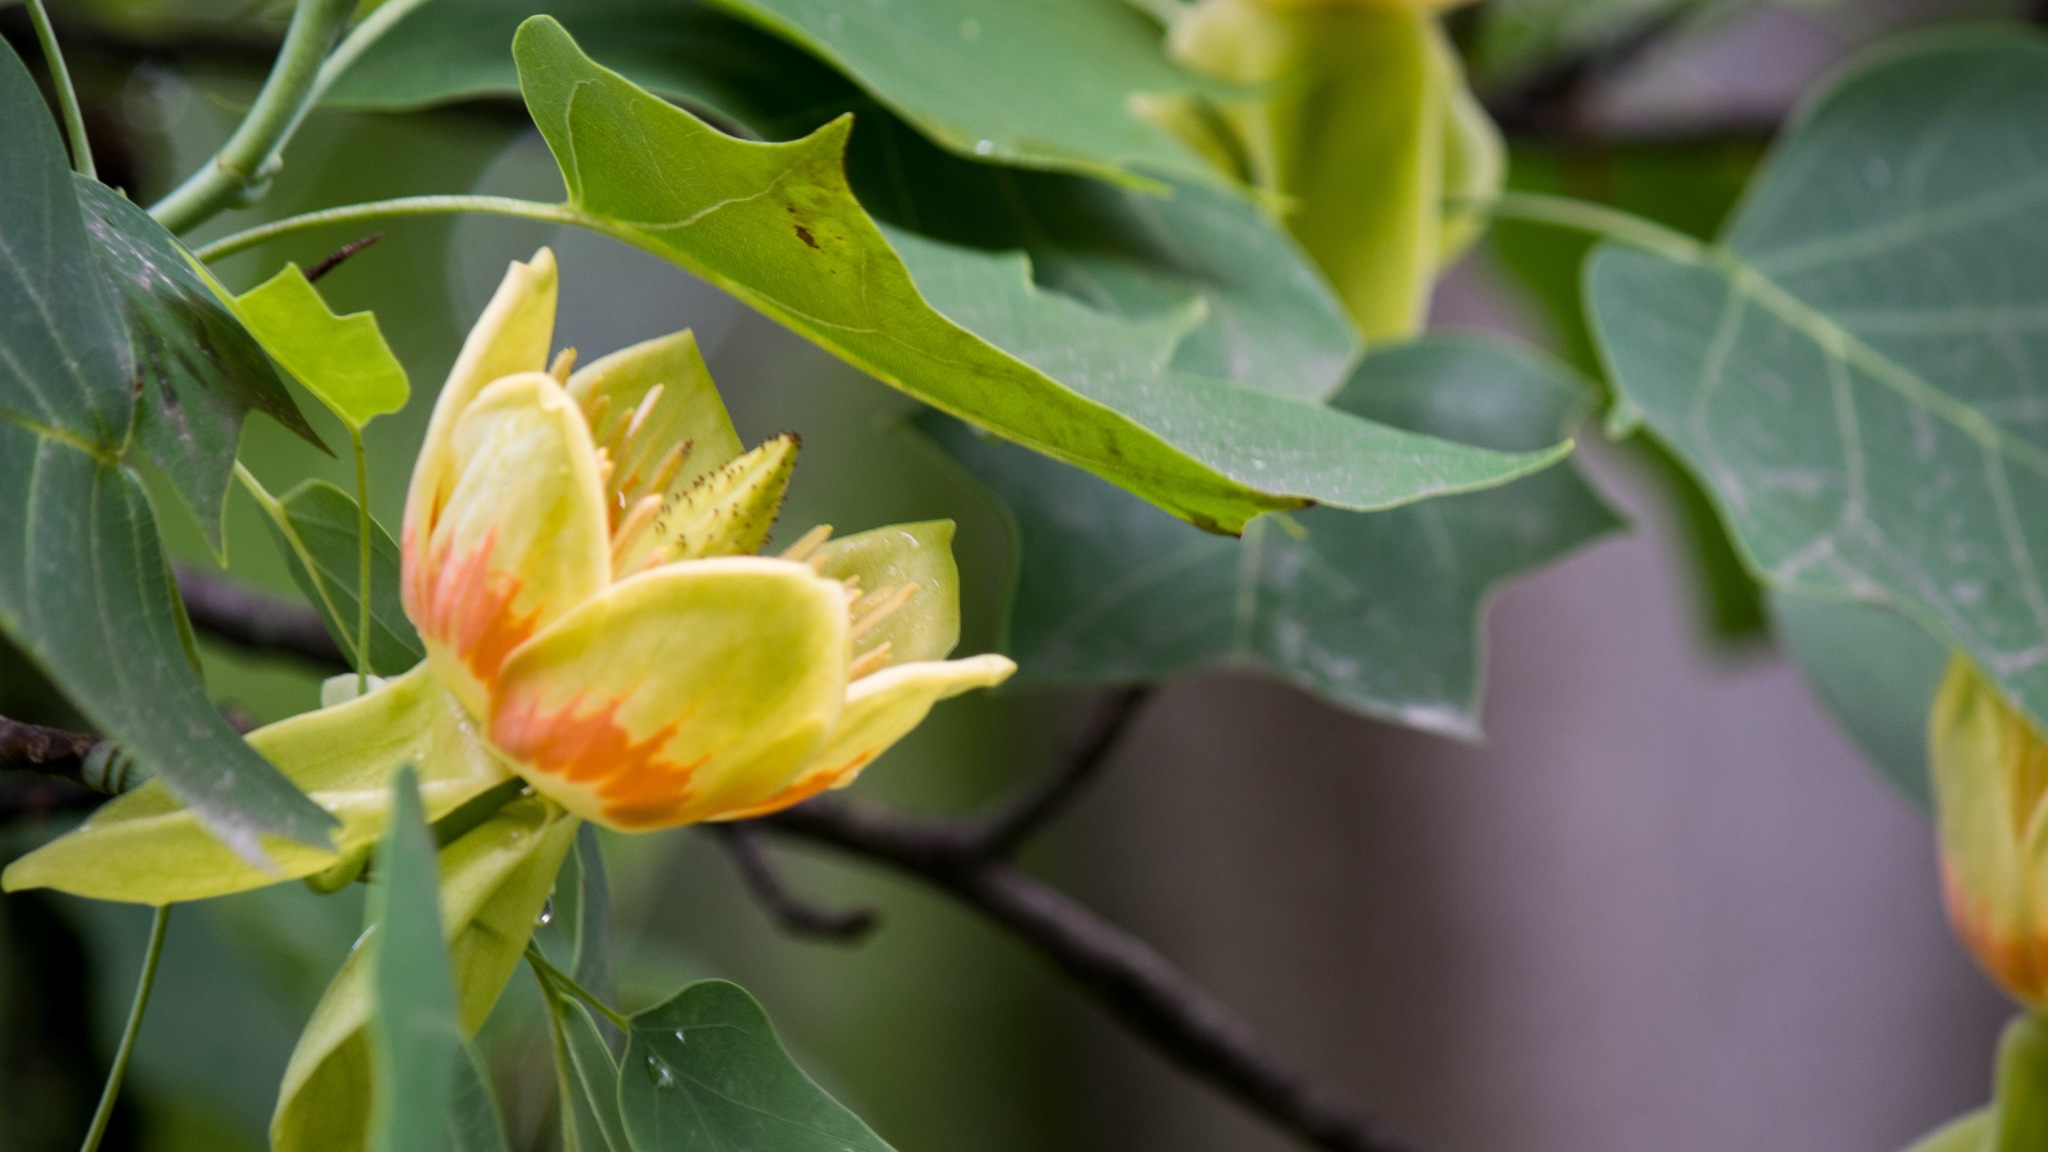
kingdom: Plantae
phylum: Tracheophyta
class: Magnoliopsida
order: Magnoliales
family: Magnoliaceae
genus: Liriodendron
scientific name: Liriodendron tulipifera
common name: Tulip tree
